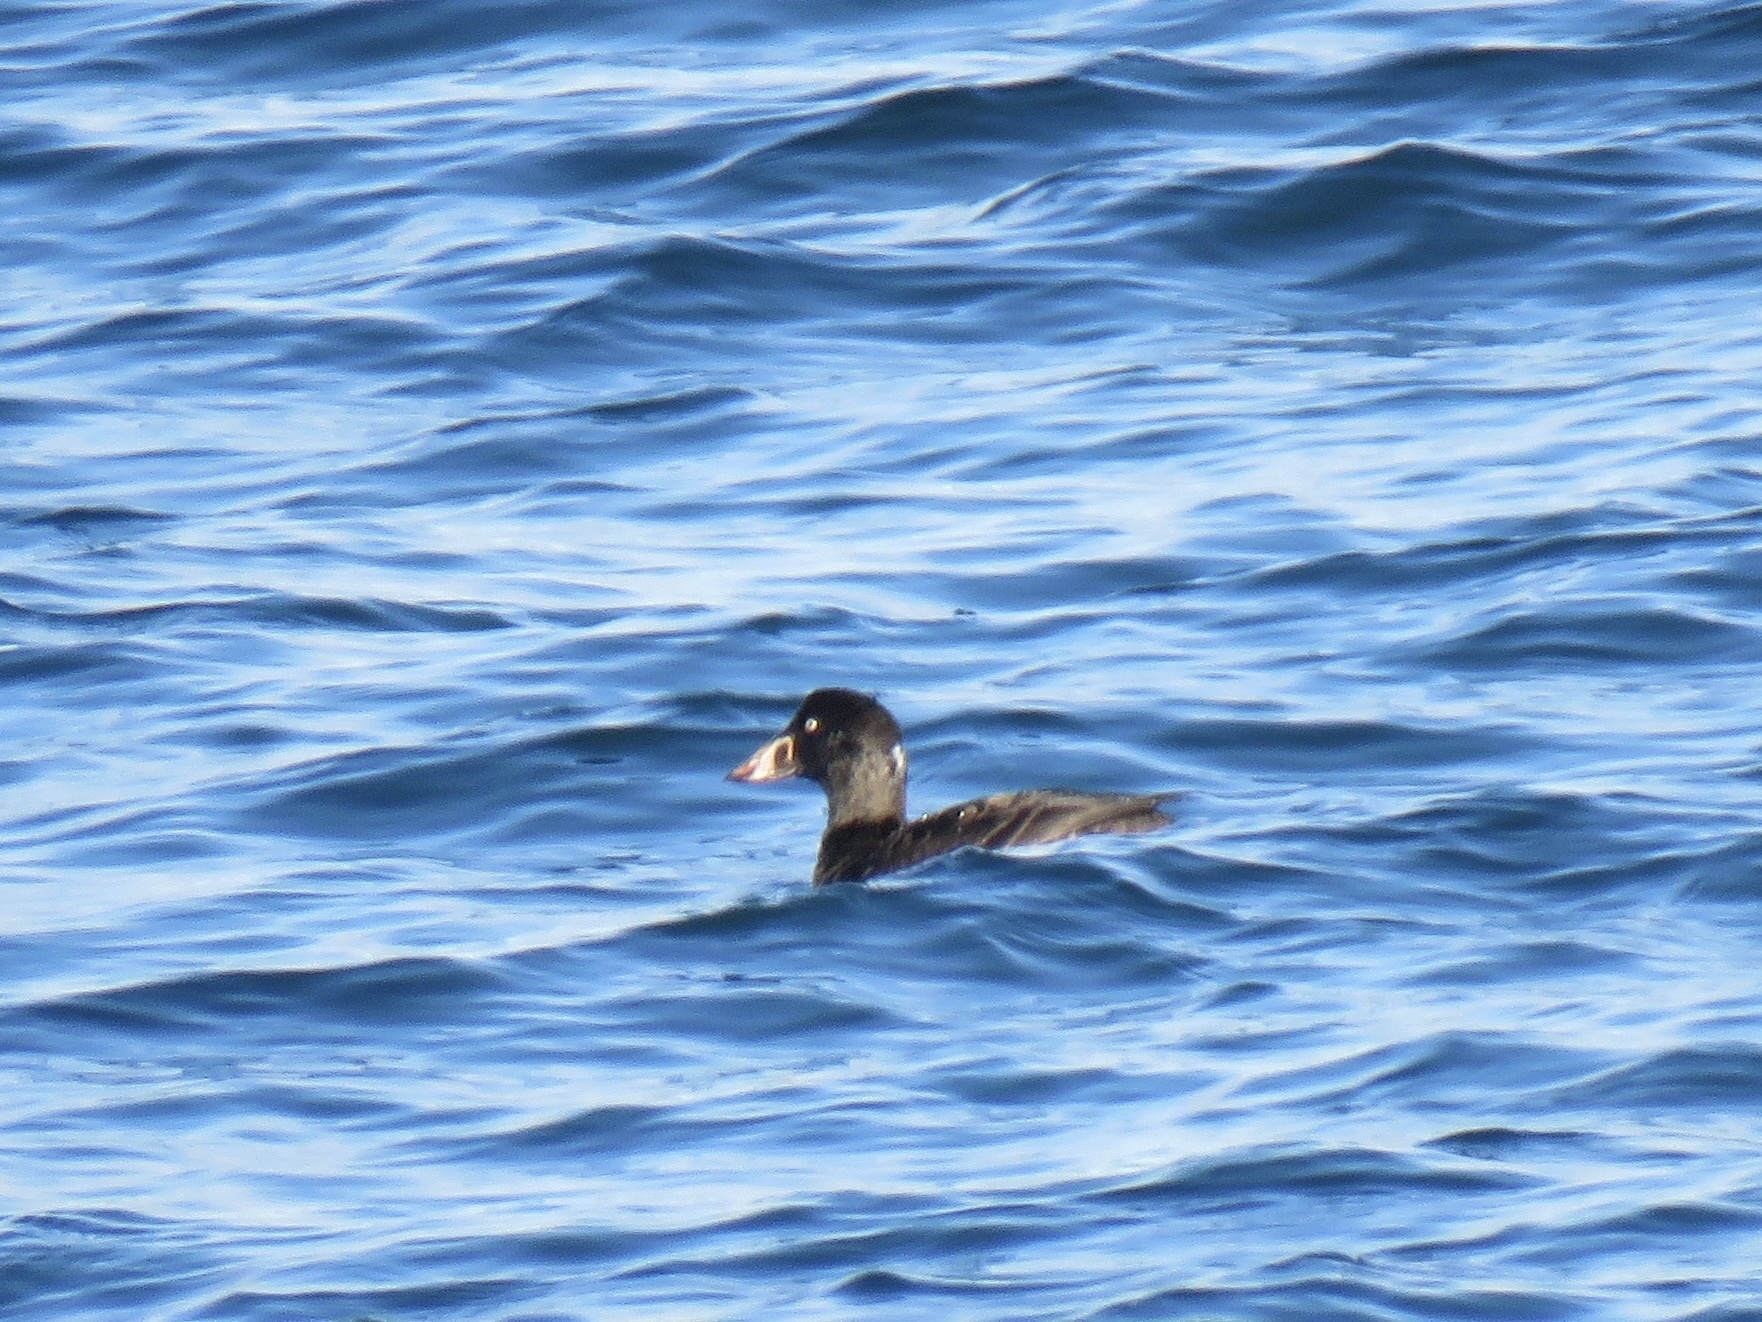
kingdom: Animalia
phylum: Chordata
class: Aves
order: Anseriformes
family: Anatidae
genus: Melanitta
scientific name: Melanitta perspicillata
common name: Surf scoter
